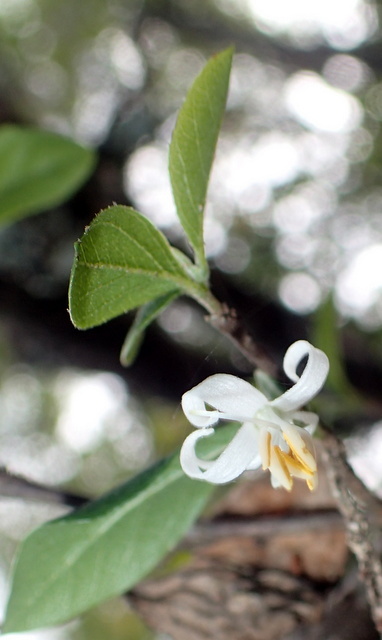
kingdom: Plantae
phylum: Tracheophyta
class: Magnoliopsida
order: Ericales
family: Styracaceae
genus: Styrax
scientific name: Styrax americanus
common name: American snowbell
